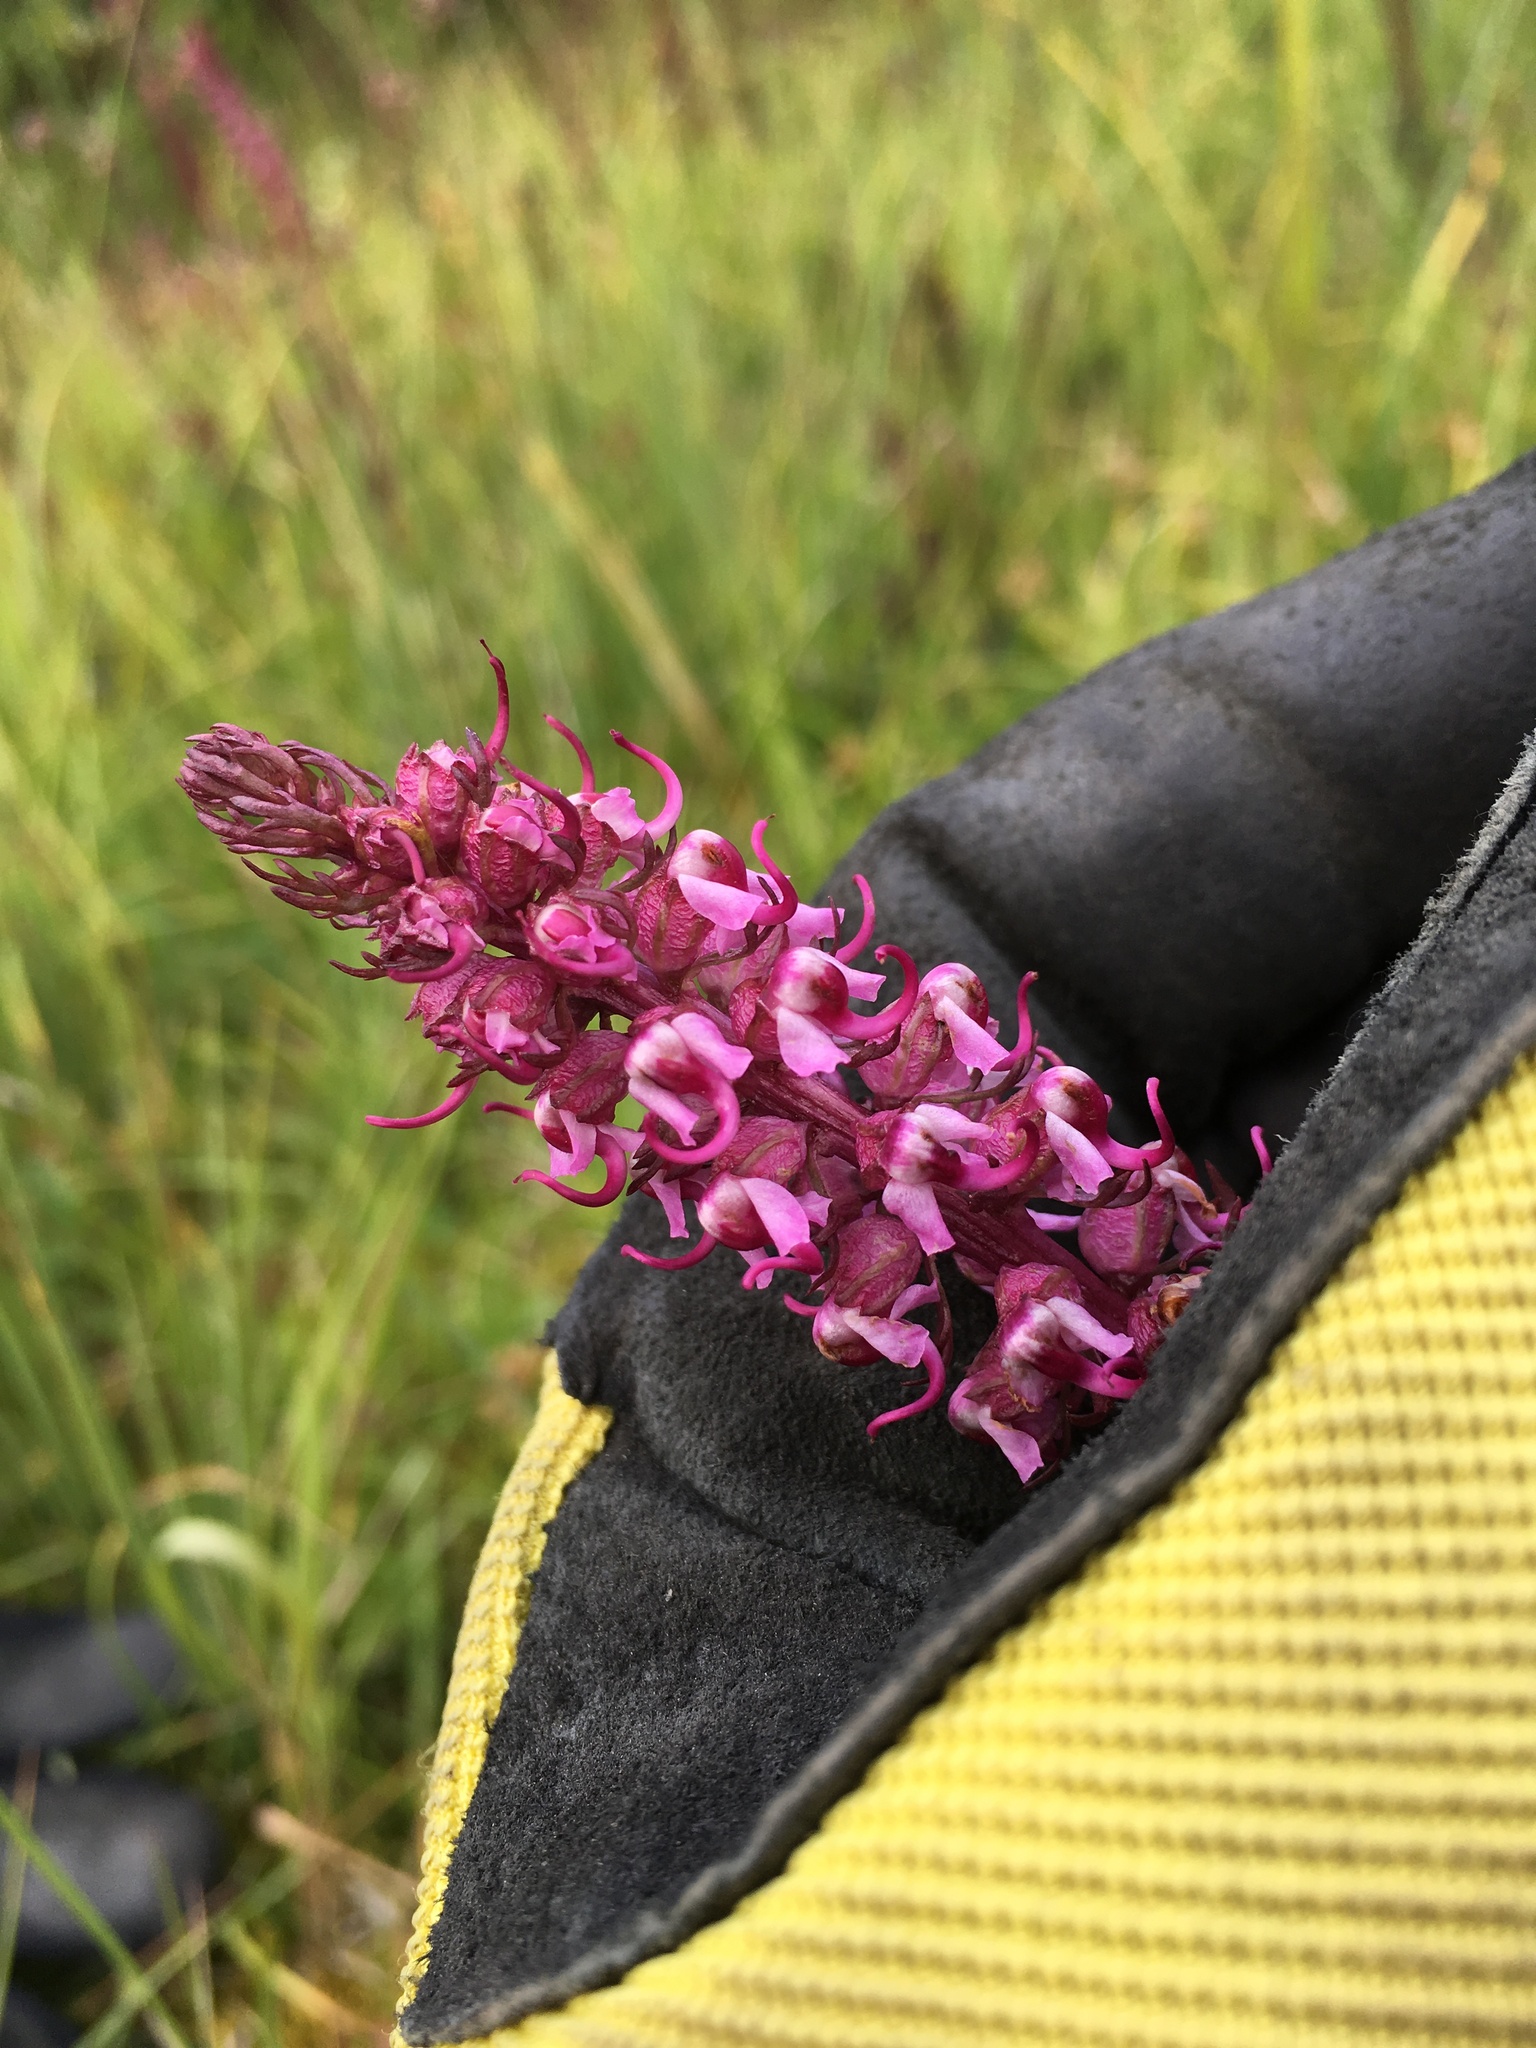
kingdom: Plantae
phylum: Tracheophyta
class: Magnoliopsida
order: Lamiales
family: Orobanchaceae
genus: Pedicularis
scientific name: Pedicularis groenlandica
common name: Elephant's-head
